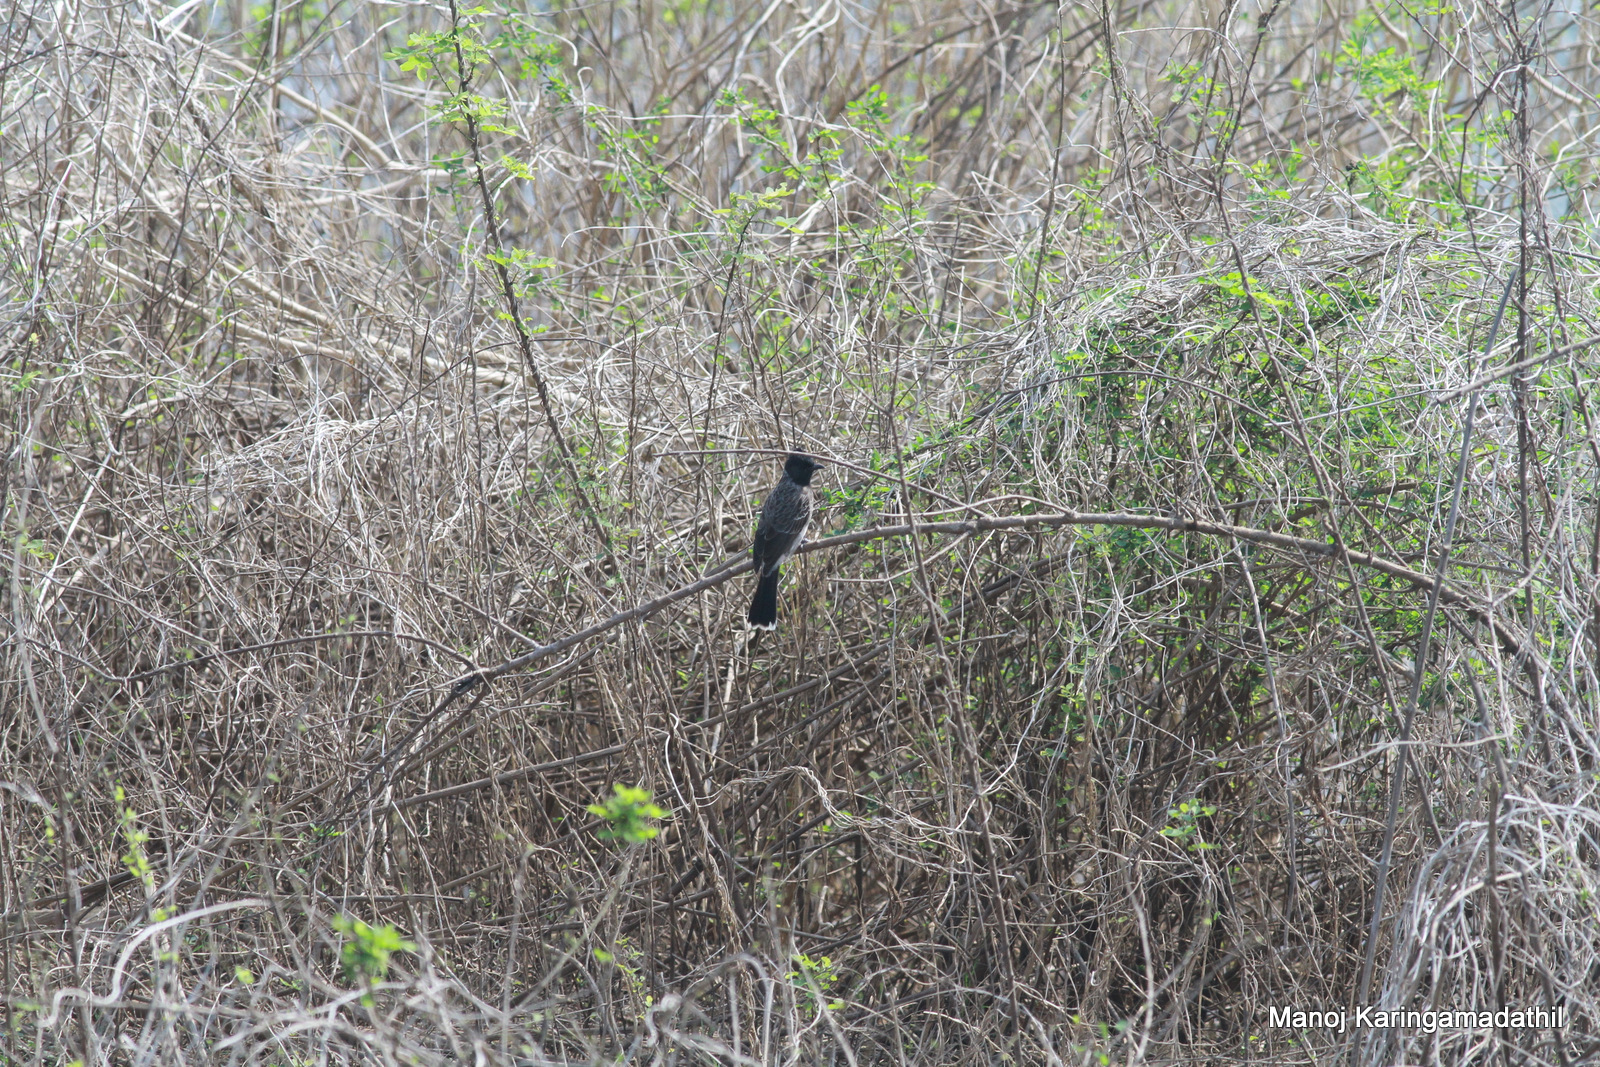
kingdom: Animalia
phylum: Chordata
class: Aves
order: Passeriformes
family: Pycnonotidae
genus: Pycnonotus
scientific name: Pycnonotus cafer
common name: Red-vented bulbul
